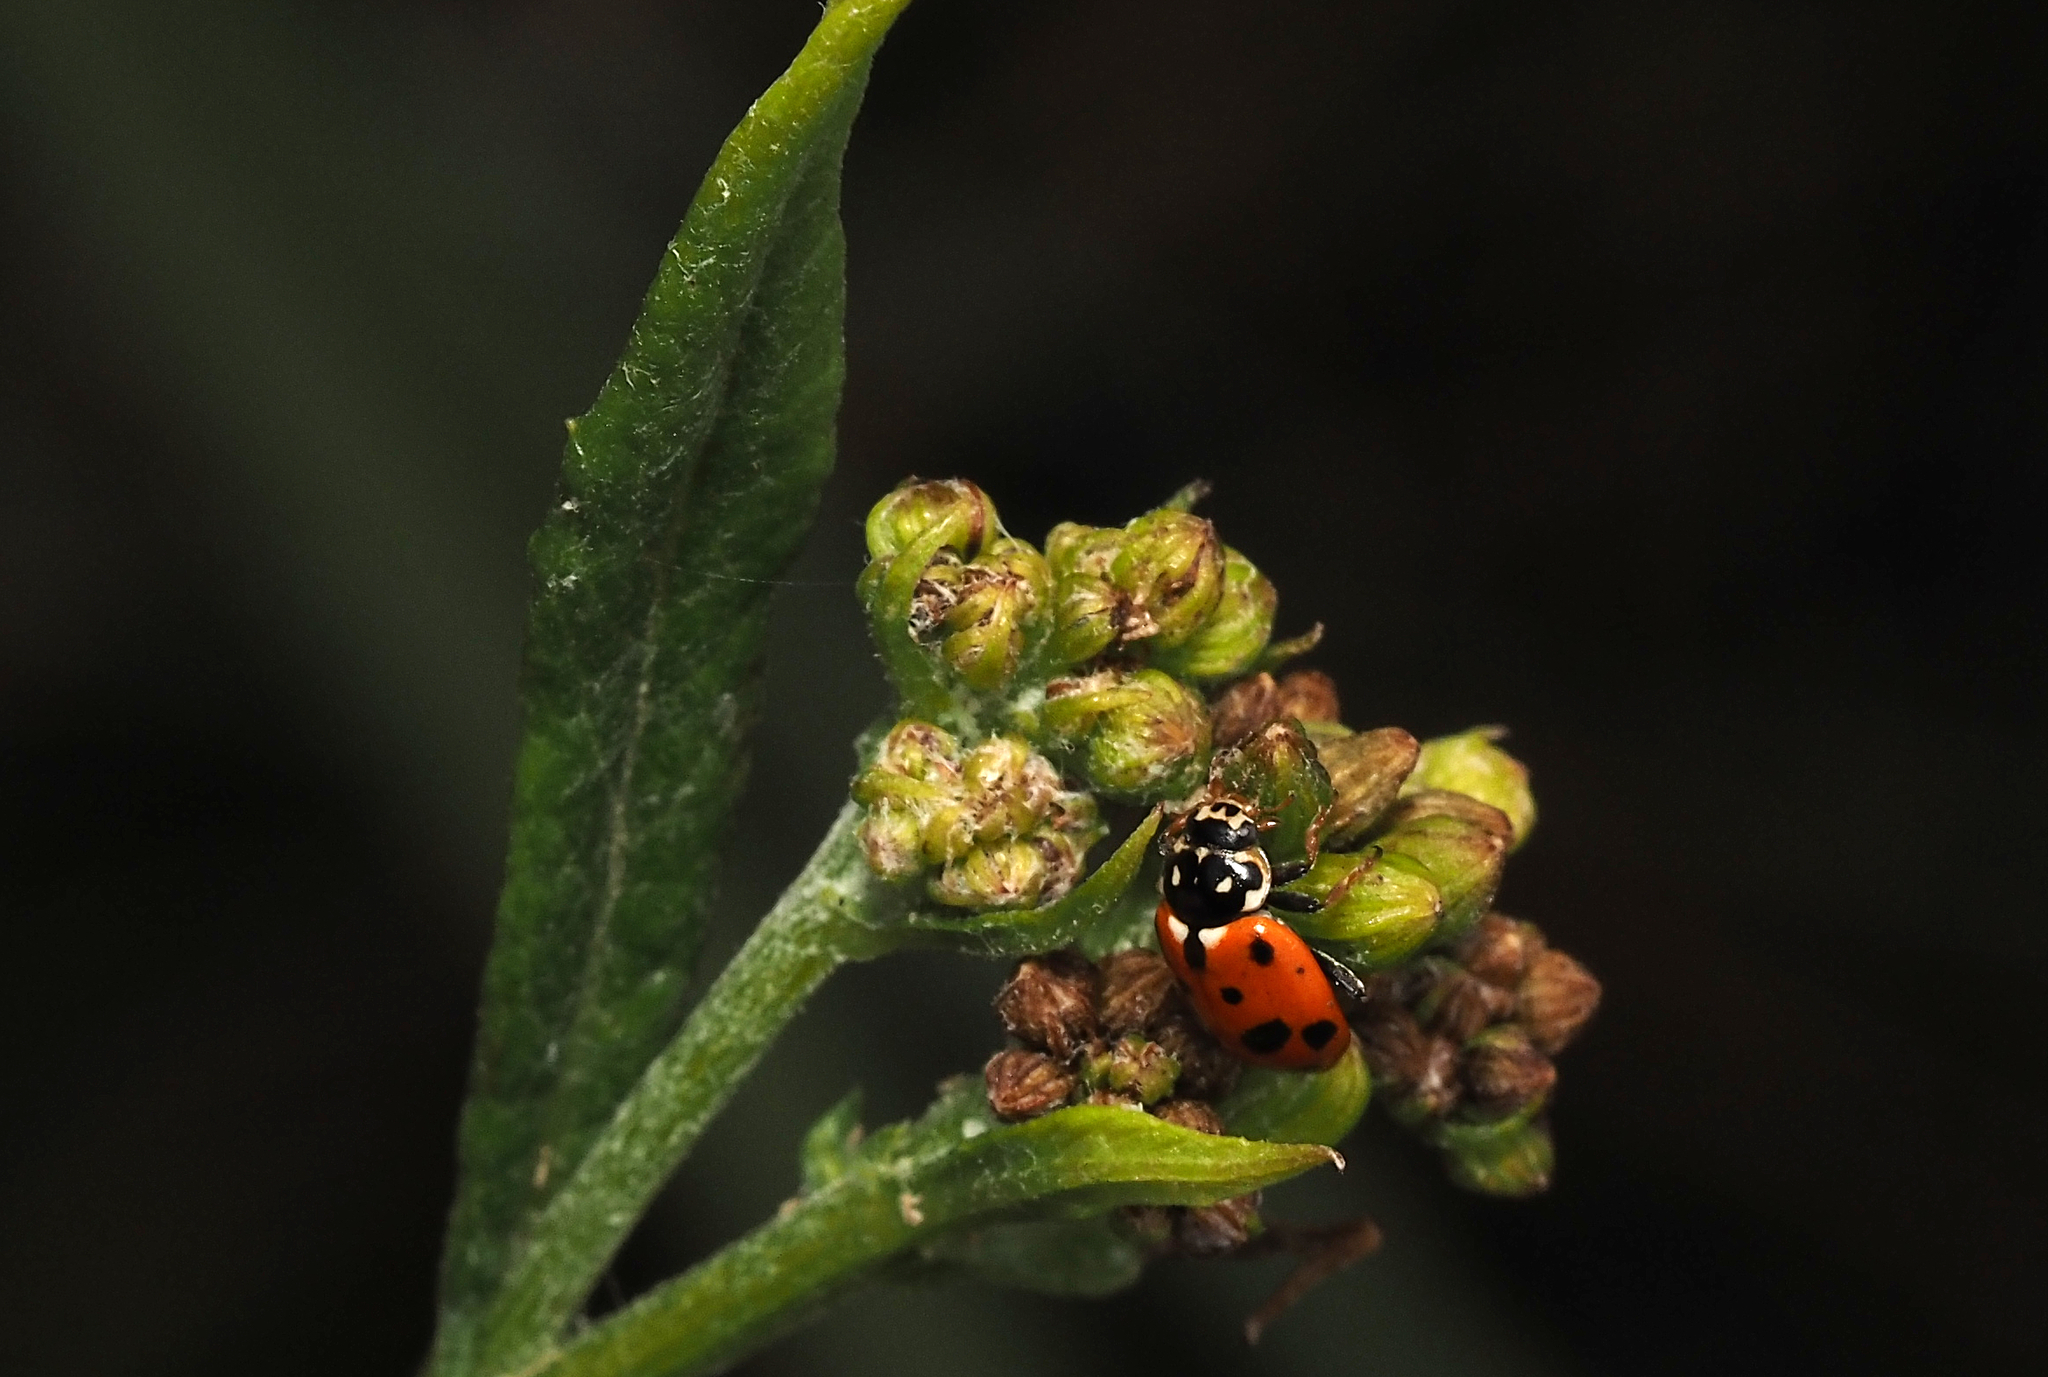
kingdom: Animalia
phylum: Arthropoda
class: Insecta
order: Coleoptera
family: Coccinellidae
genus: Hippodamia
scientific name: Hippodamia variegata
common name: Ladybird beetle
